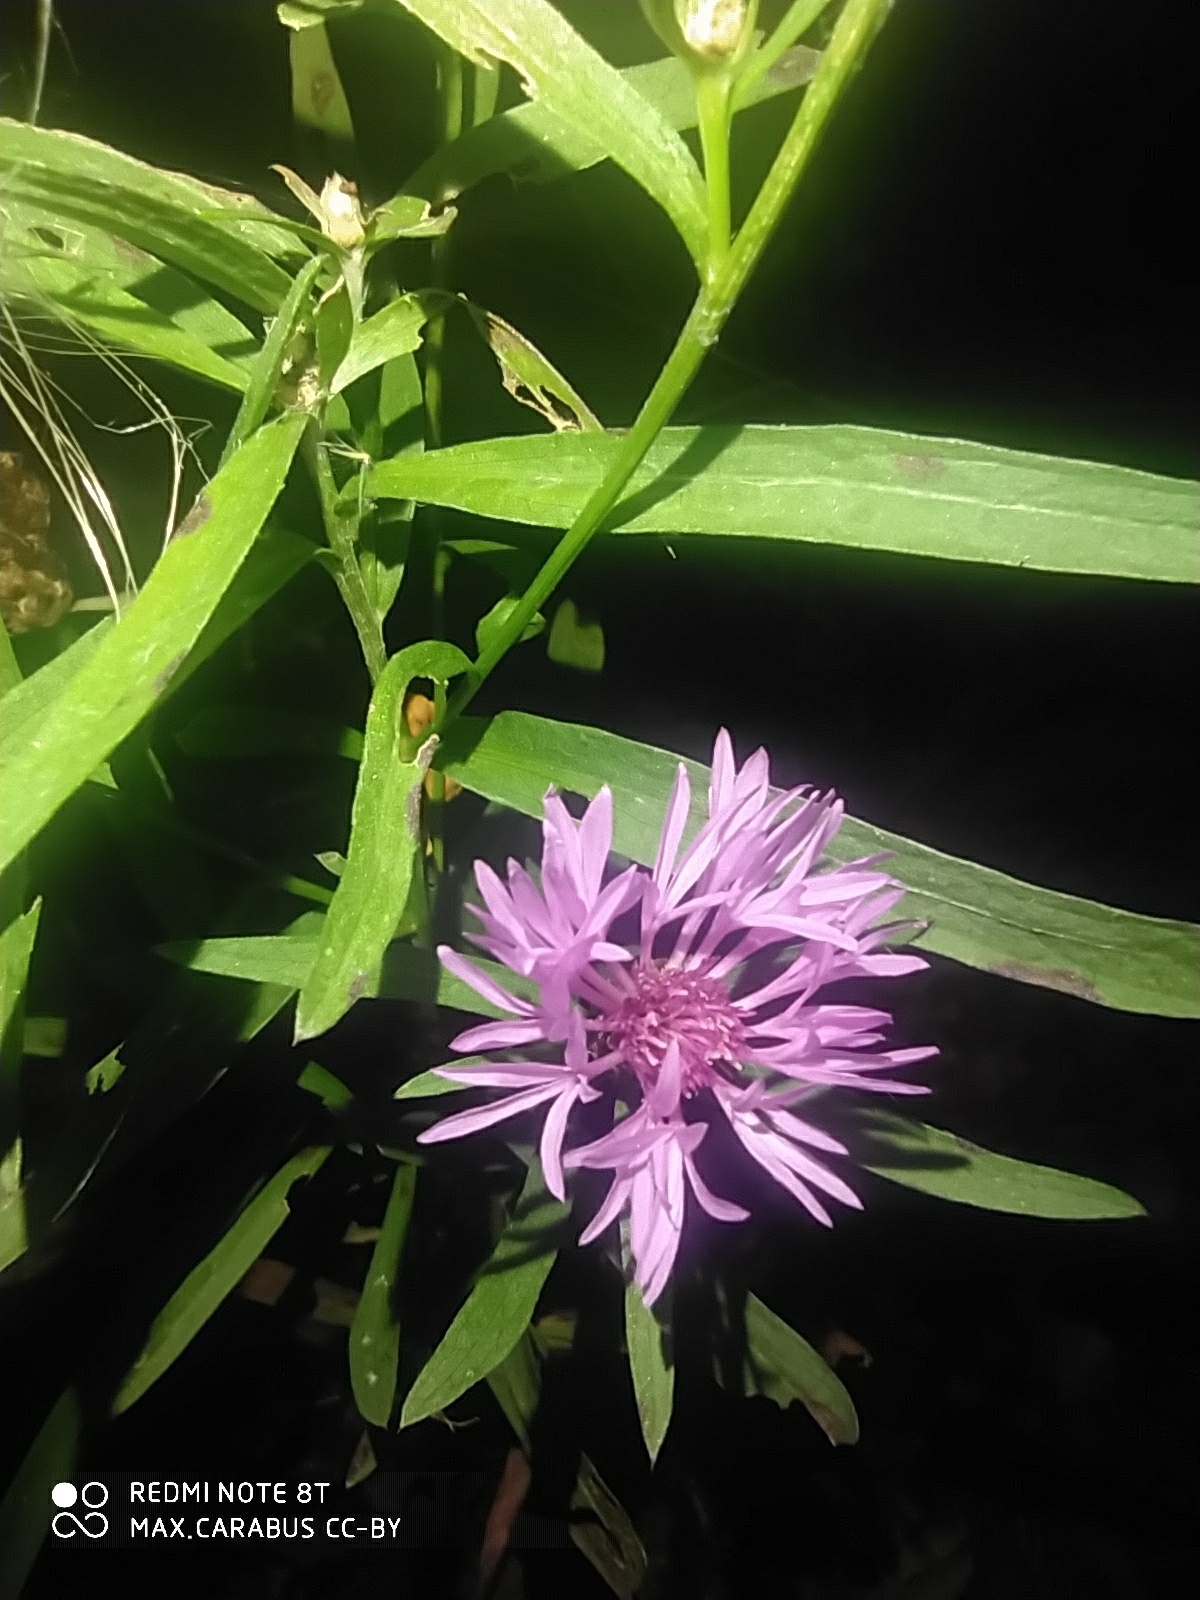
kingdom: Plantae
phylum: Tracheophyta
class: Magnoliopsida
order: Asterales
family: Asteraceae
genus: Centaurea
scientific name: Centaurea jacea
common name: Brown knapweed
